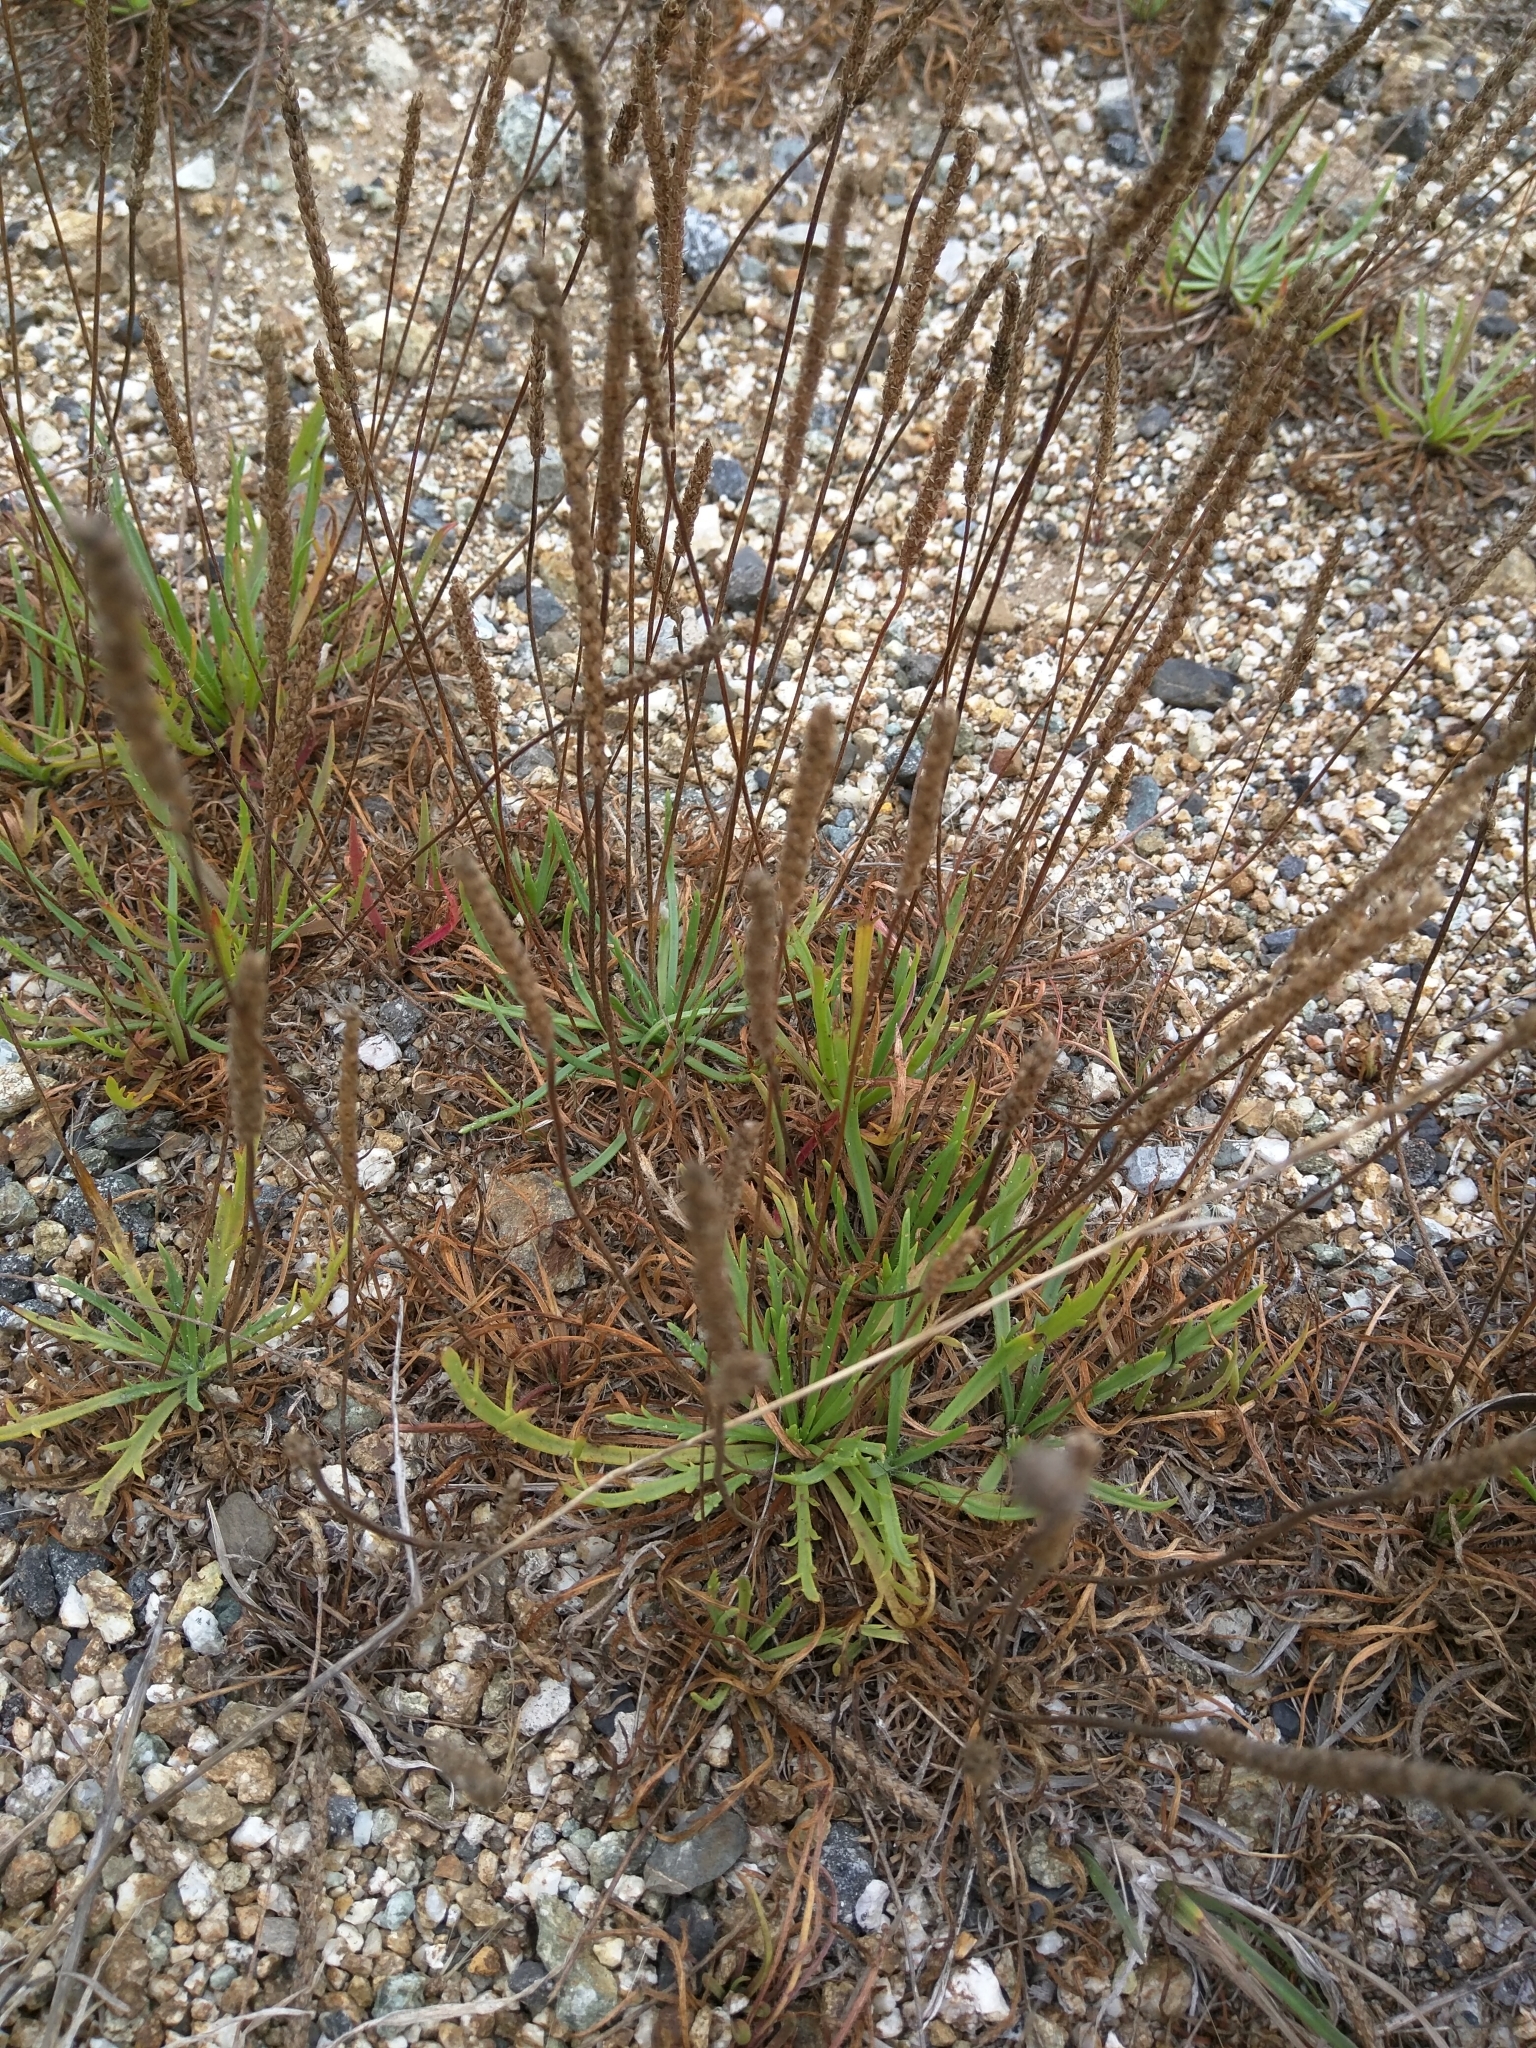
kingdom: Plantae
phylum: Tracheophyta
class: Magnoliopsida
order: Lamiales
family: Plantaginaceae
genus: Plantago
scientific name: Plantago coronopus
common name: Buck's-horn plantain
